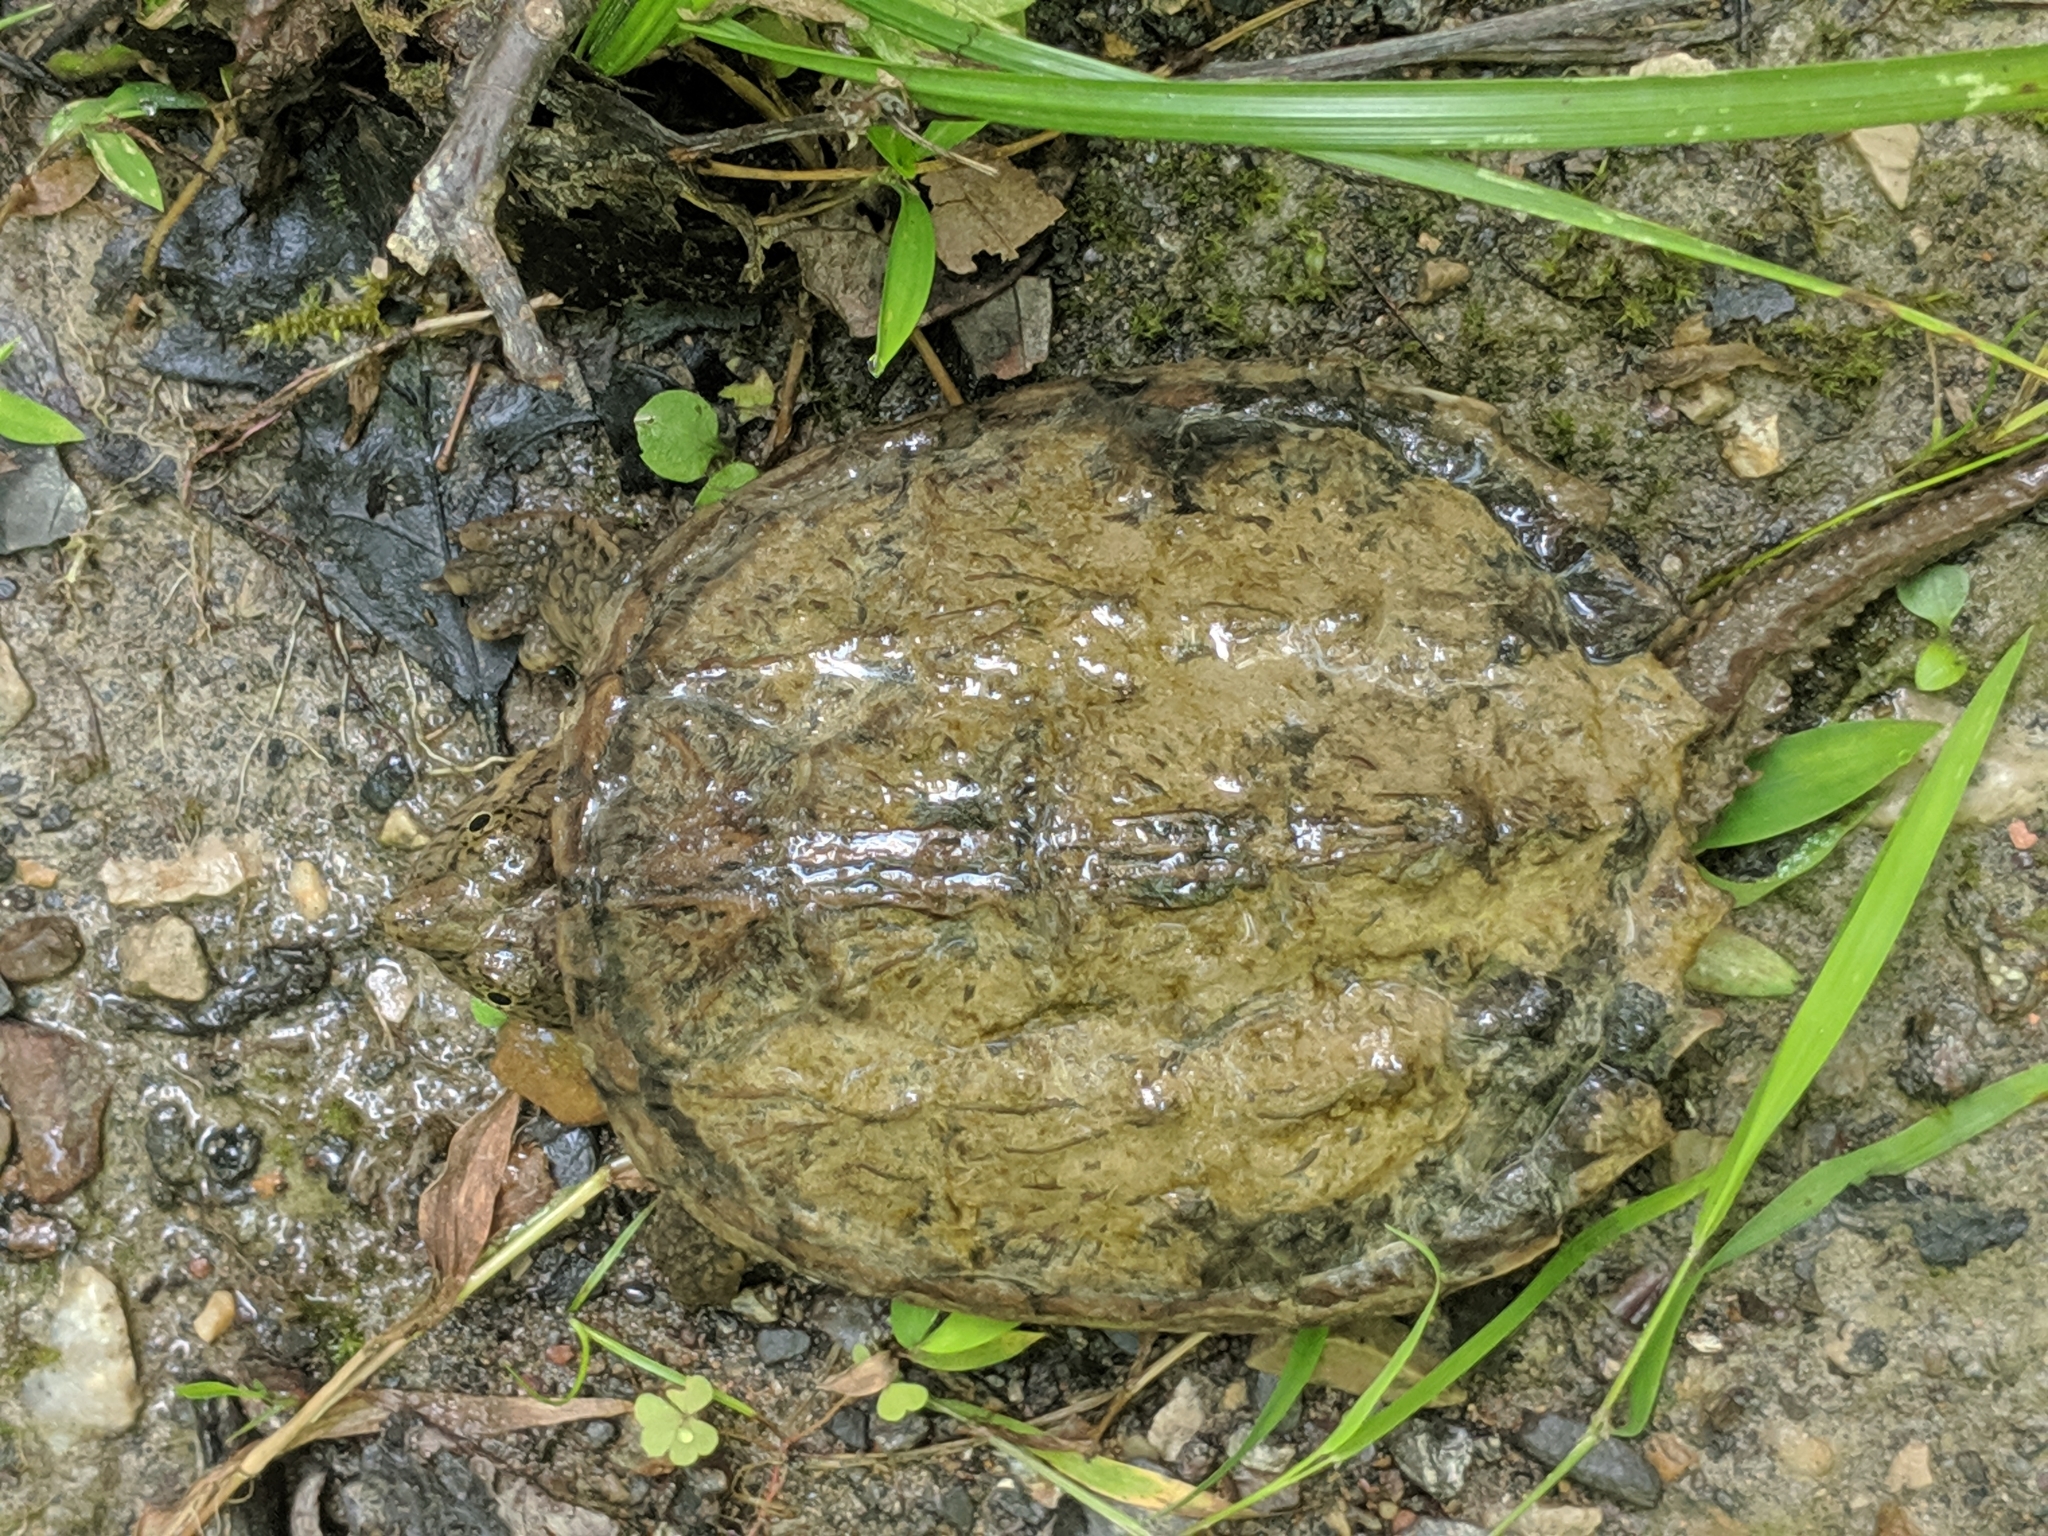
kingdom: Animalia
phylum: Chordata
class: Testudines
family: Chelydridae
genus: Chelydra
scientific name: Chelydra serpentina
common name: Common snapping turtle
